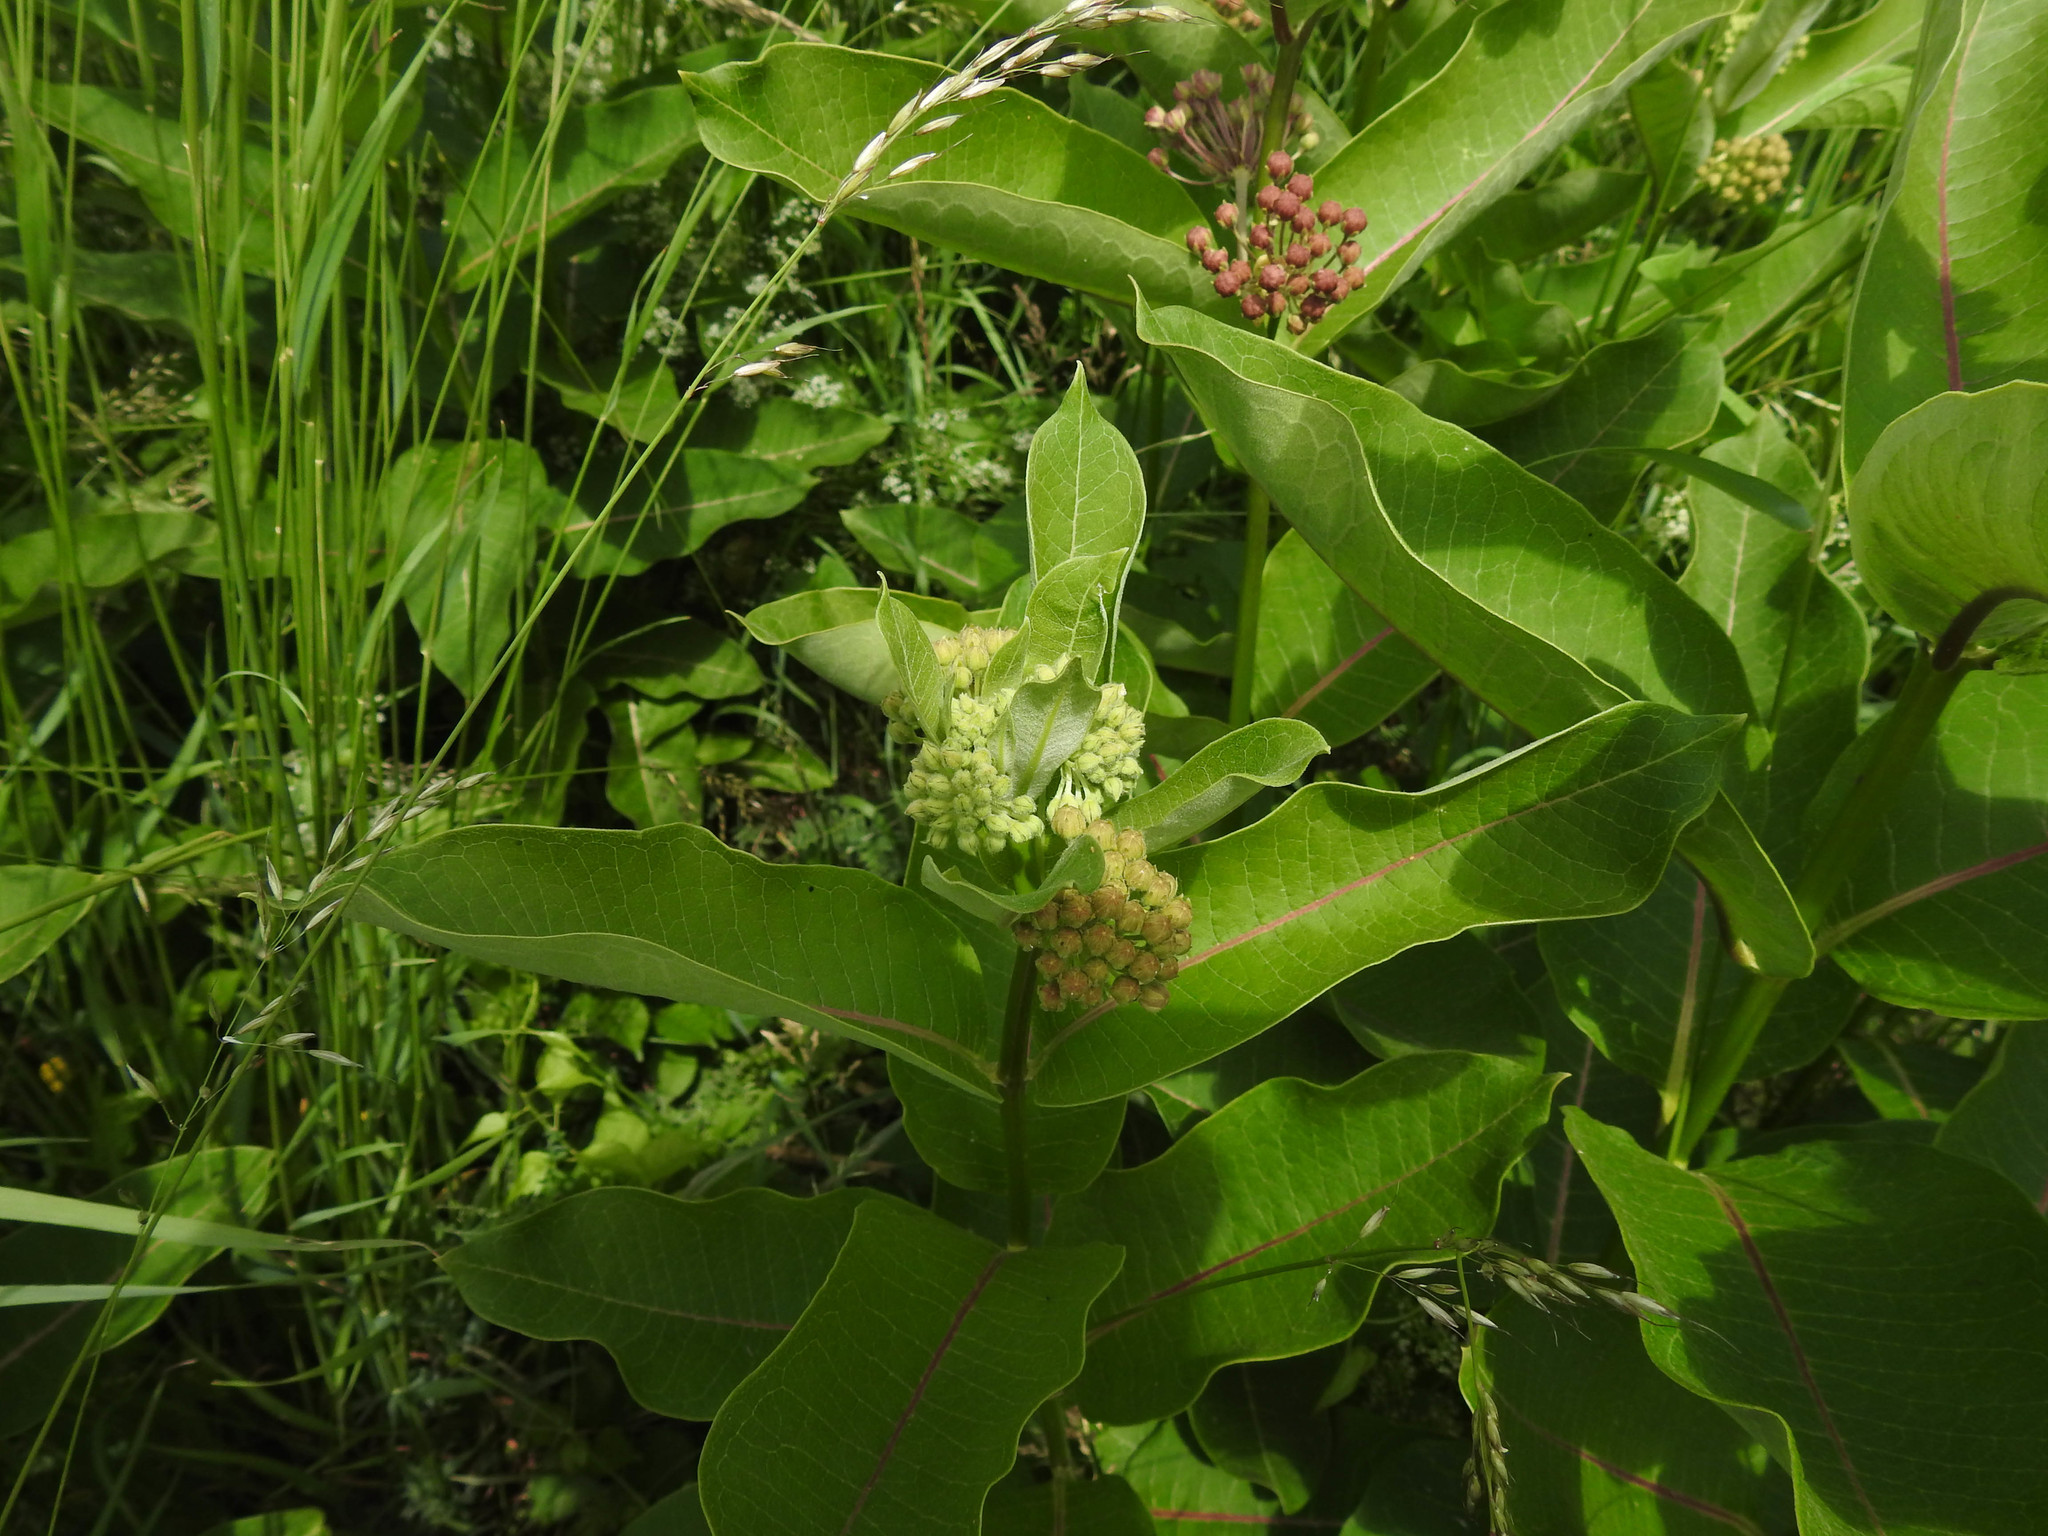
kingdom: Plantae
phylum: Tracheophyta
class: Magnoliopsida
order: Gentianales
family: Apocynaceae
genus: Asclepias
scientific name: Asclepias syriaca
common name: Common milkweed
